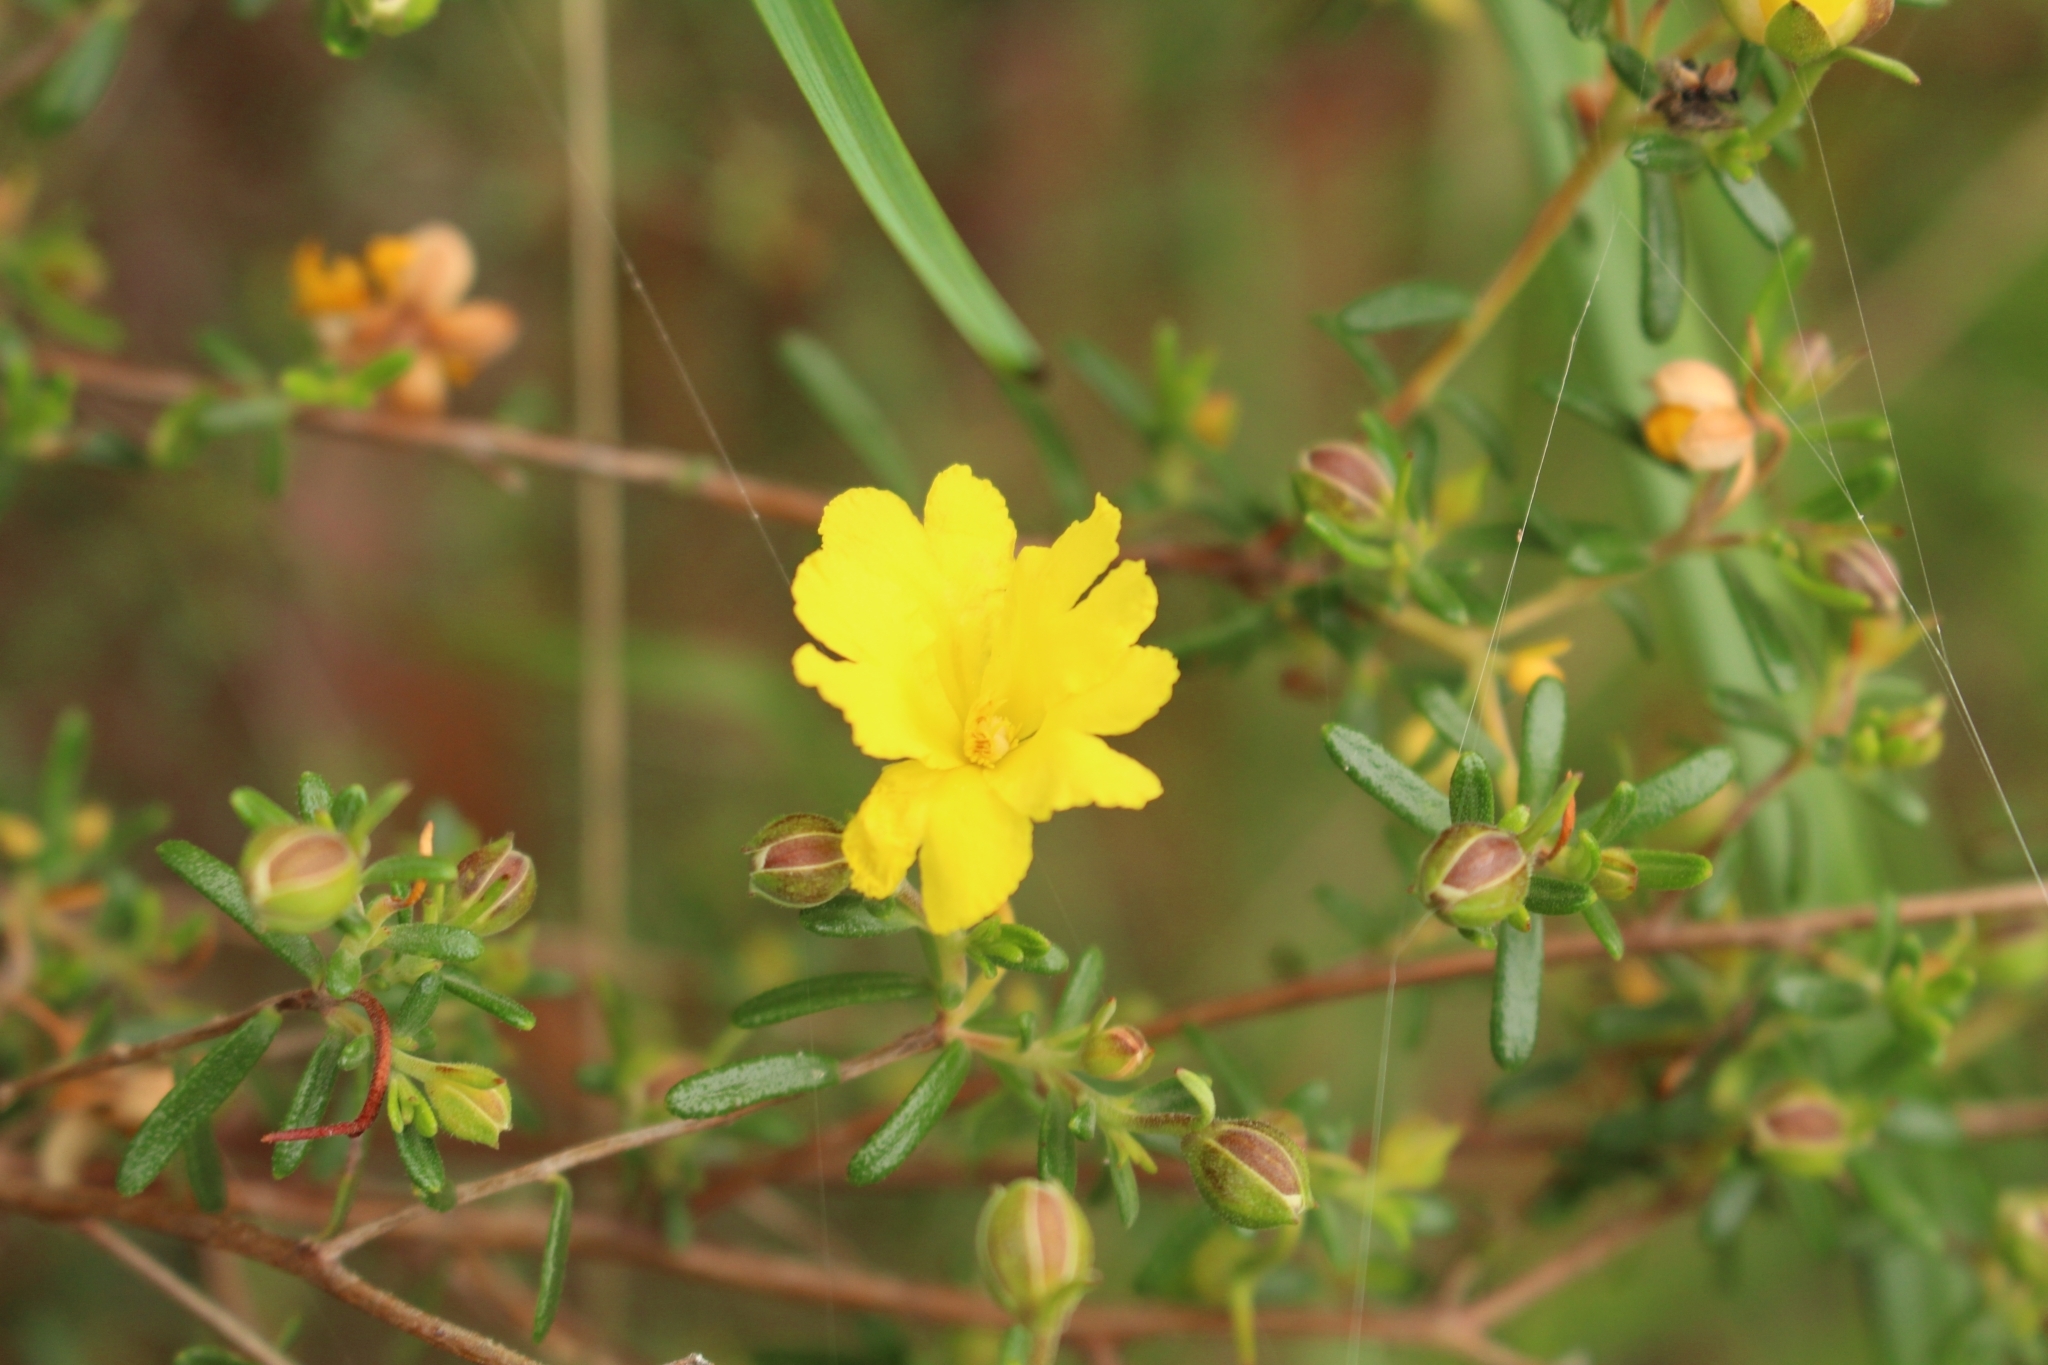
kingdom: Plantae
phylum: Tracheophyta
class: Magnoliopsida
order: Dilleniales
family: Dilleniaceae
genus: Hibbertia
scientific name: Hibbertia hypericoides
